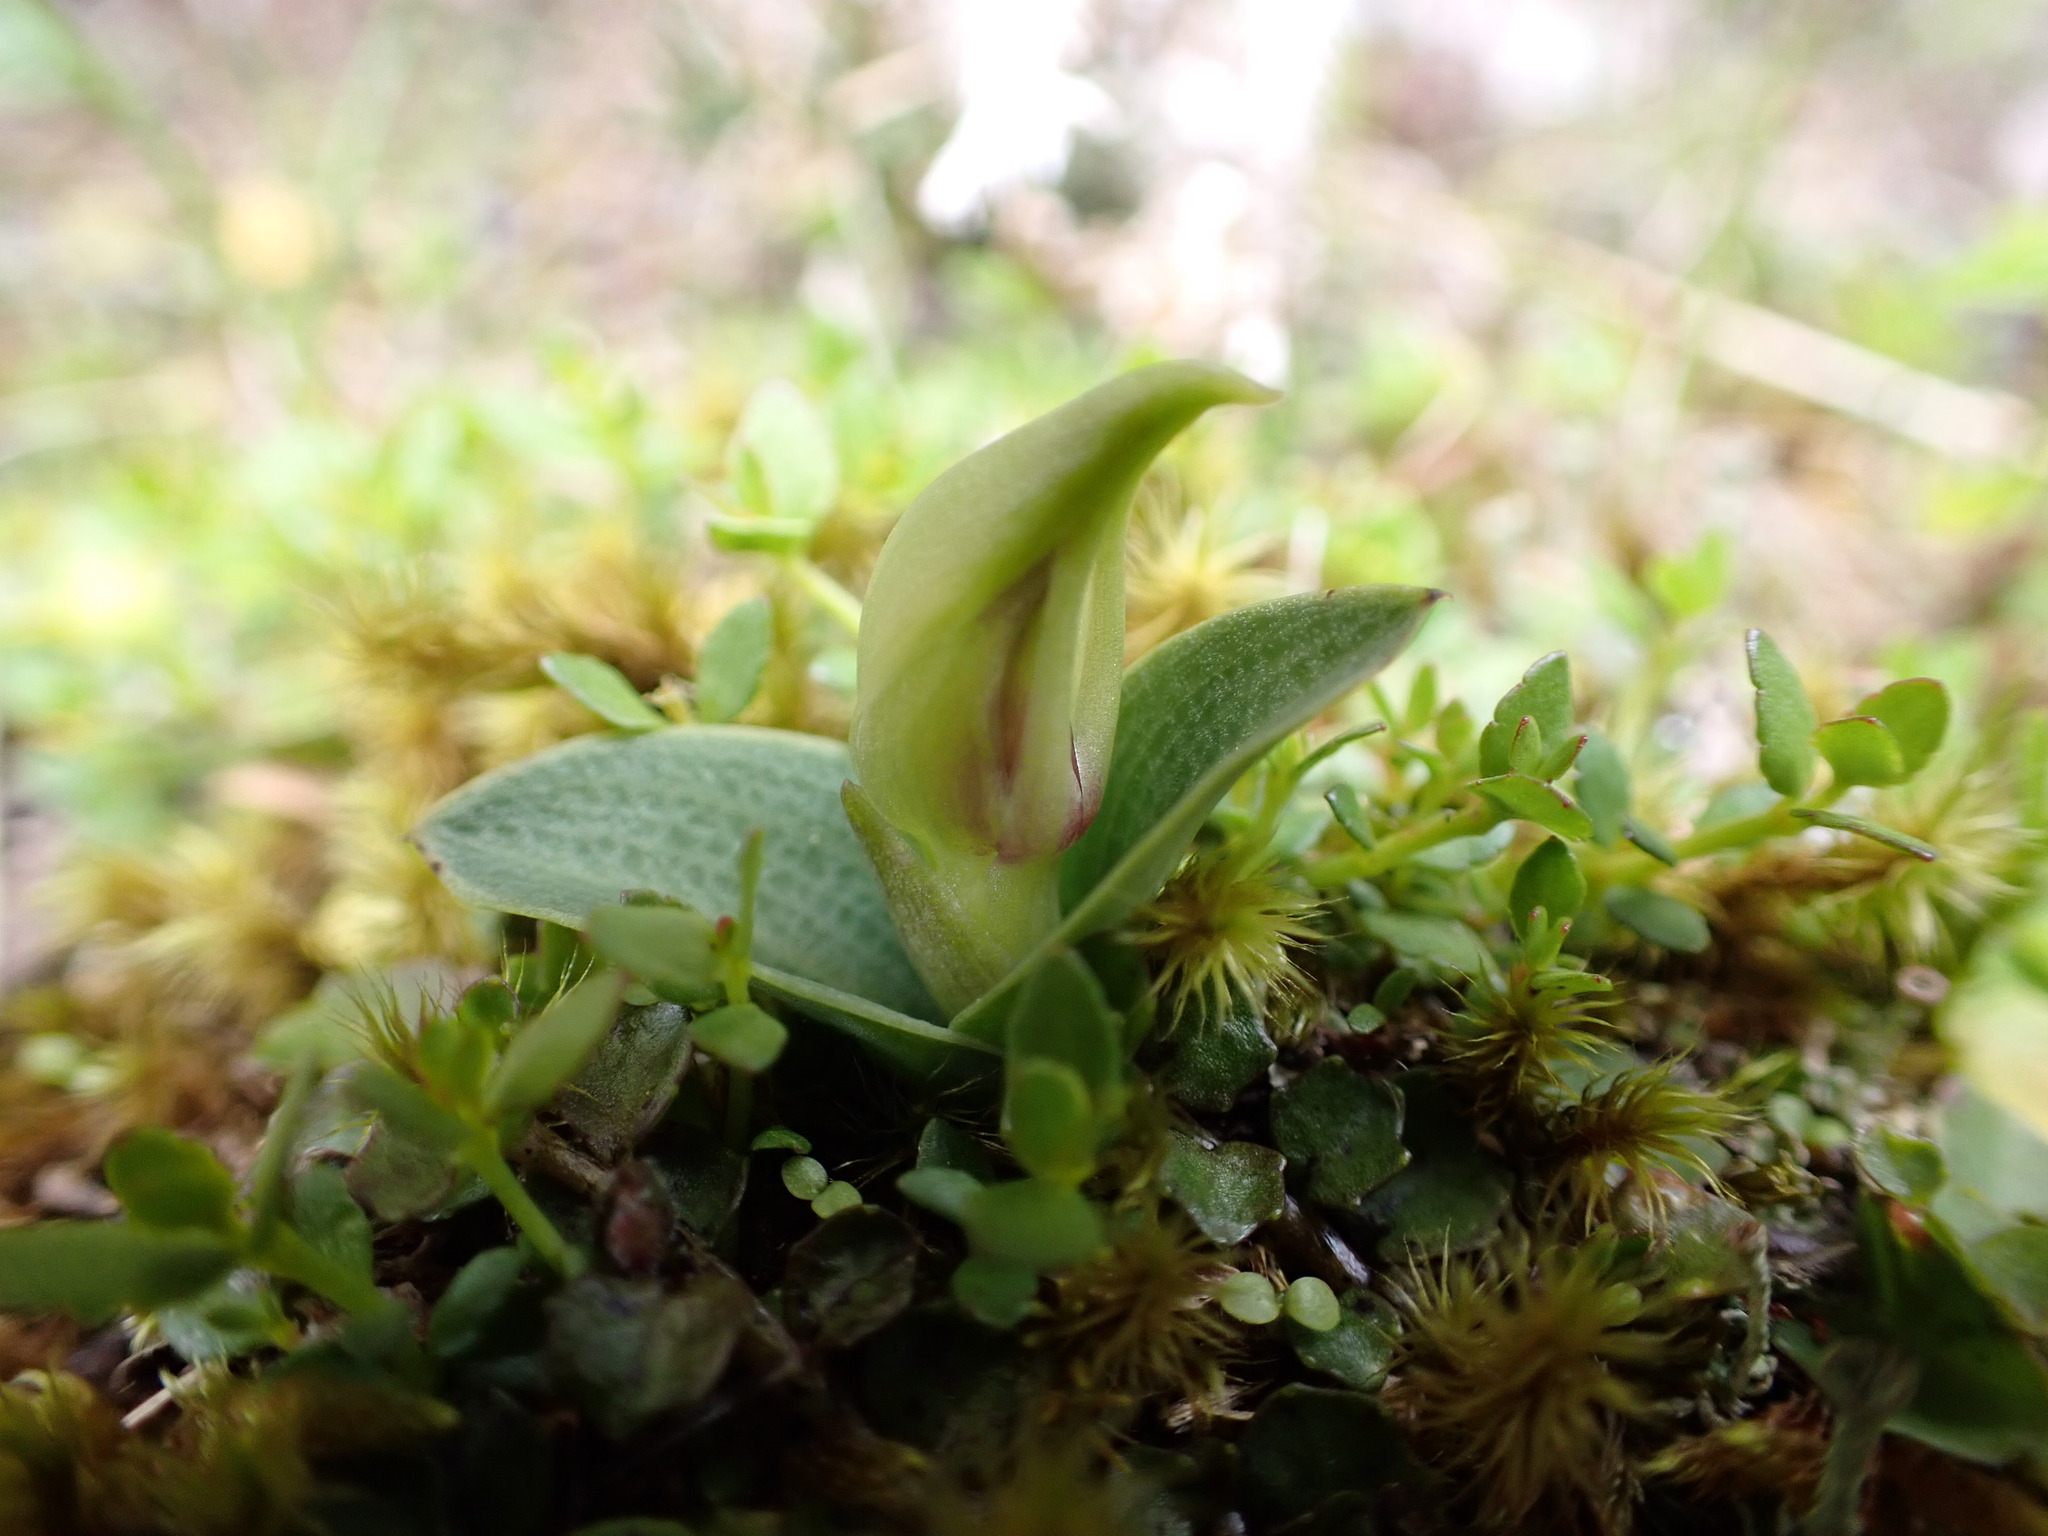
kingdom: Plantae
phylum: Tracheophyta
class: Liliopsida
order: Asparagales
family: Orchidaceae
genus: Chiloglottis
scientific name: Chiloglottis cornuta
